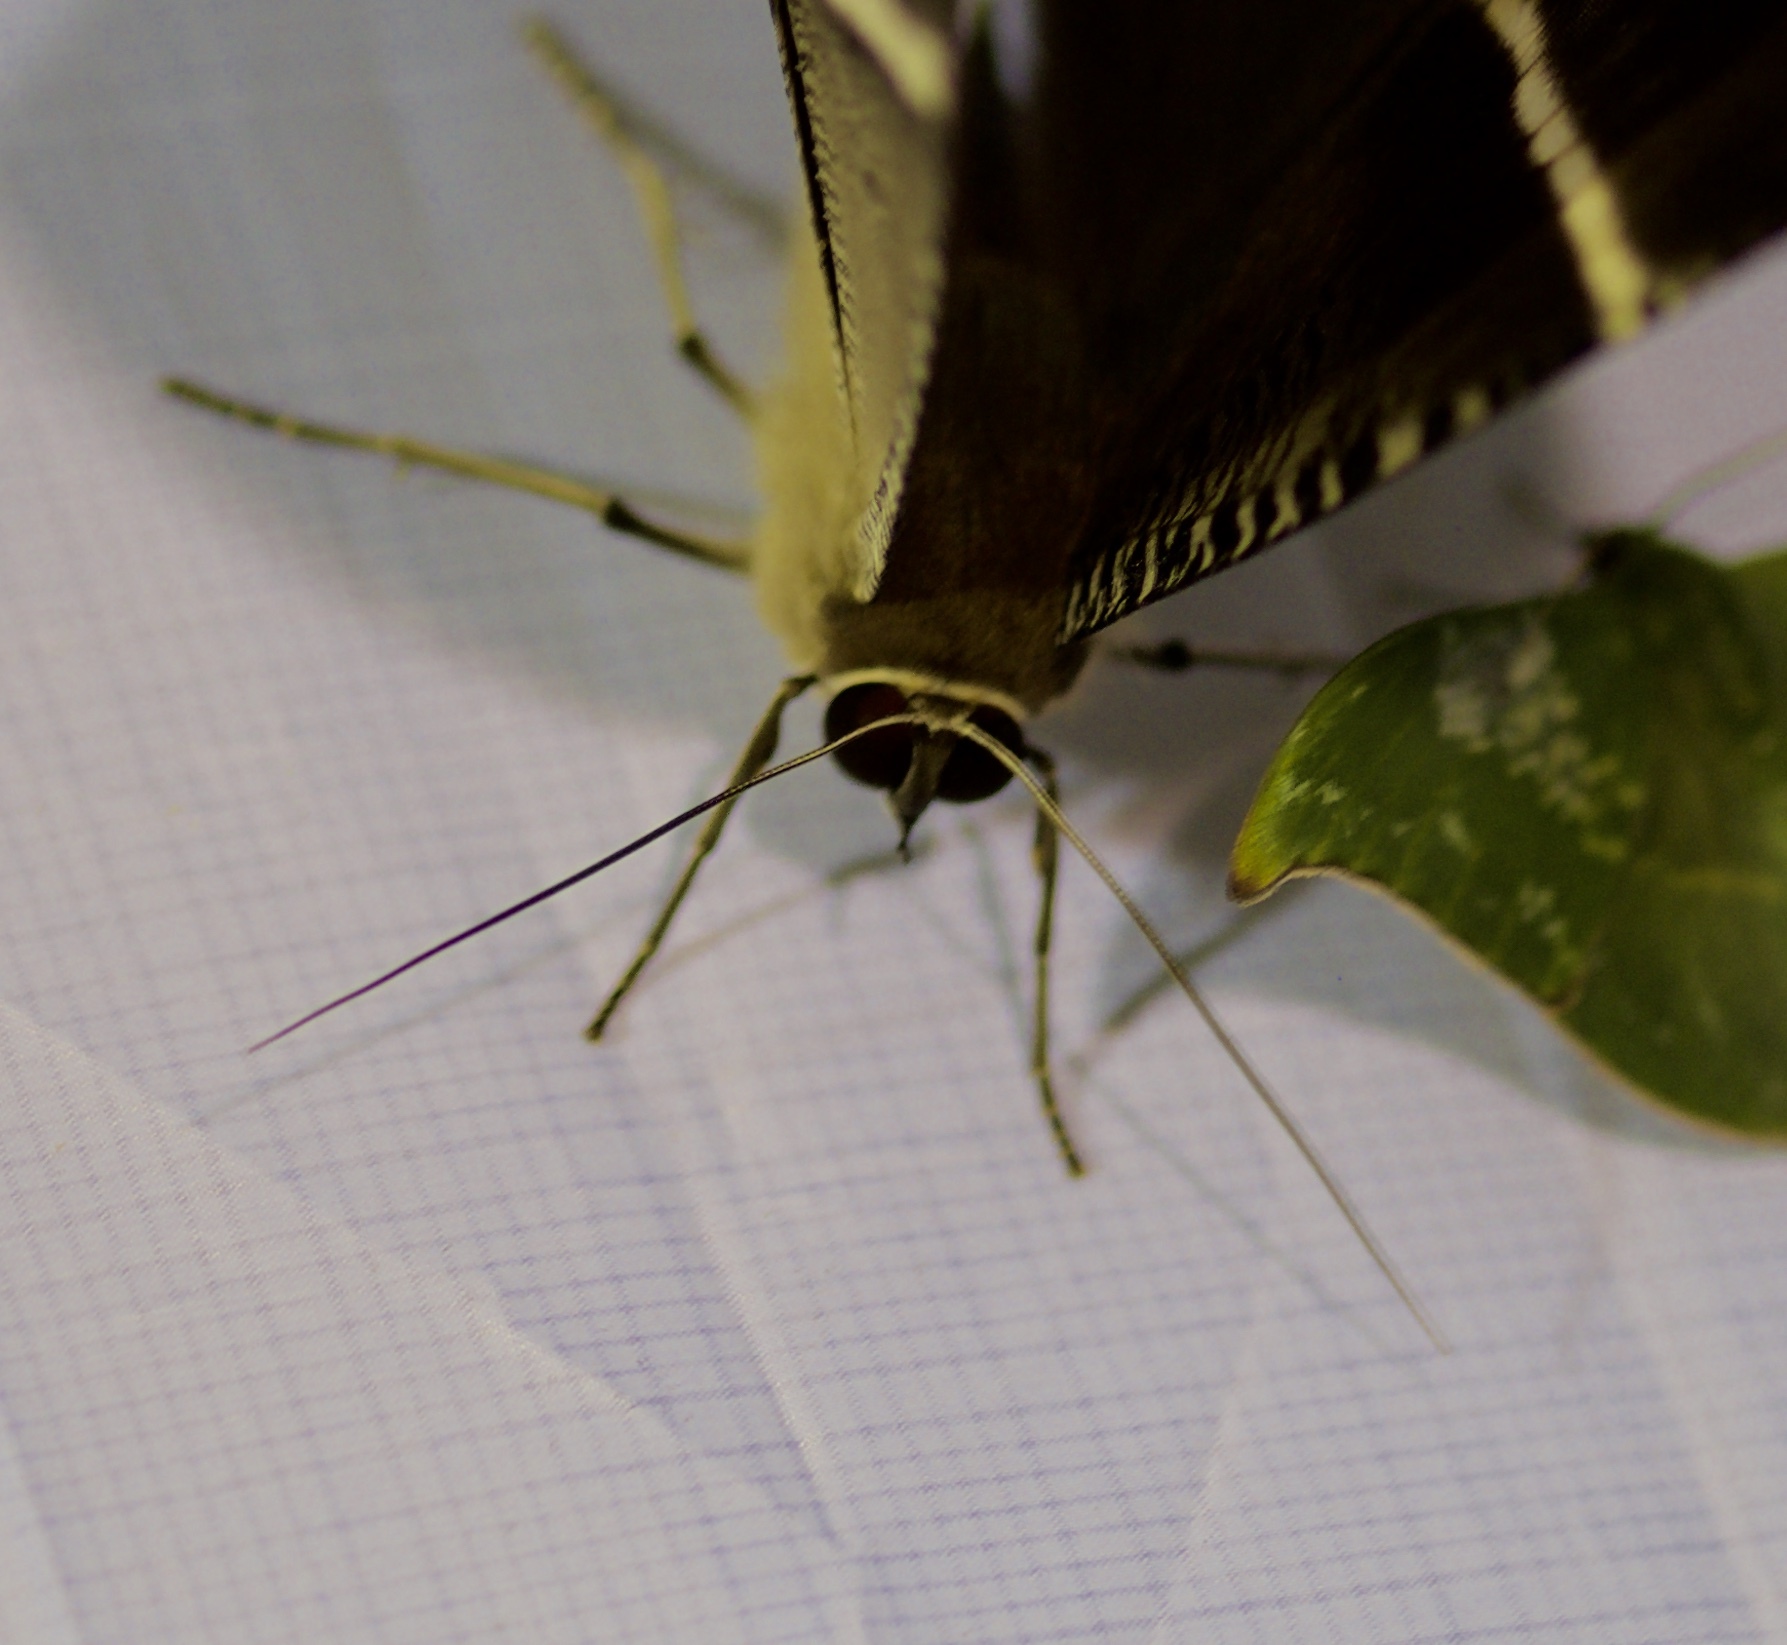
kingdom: Animalia
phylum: Arthropoda
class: Insecta
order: Lepidoptera
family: Uraniidae
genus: Lyssa
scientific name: Lyssa zampa
